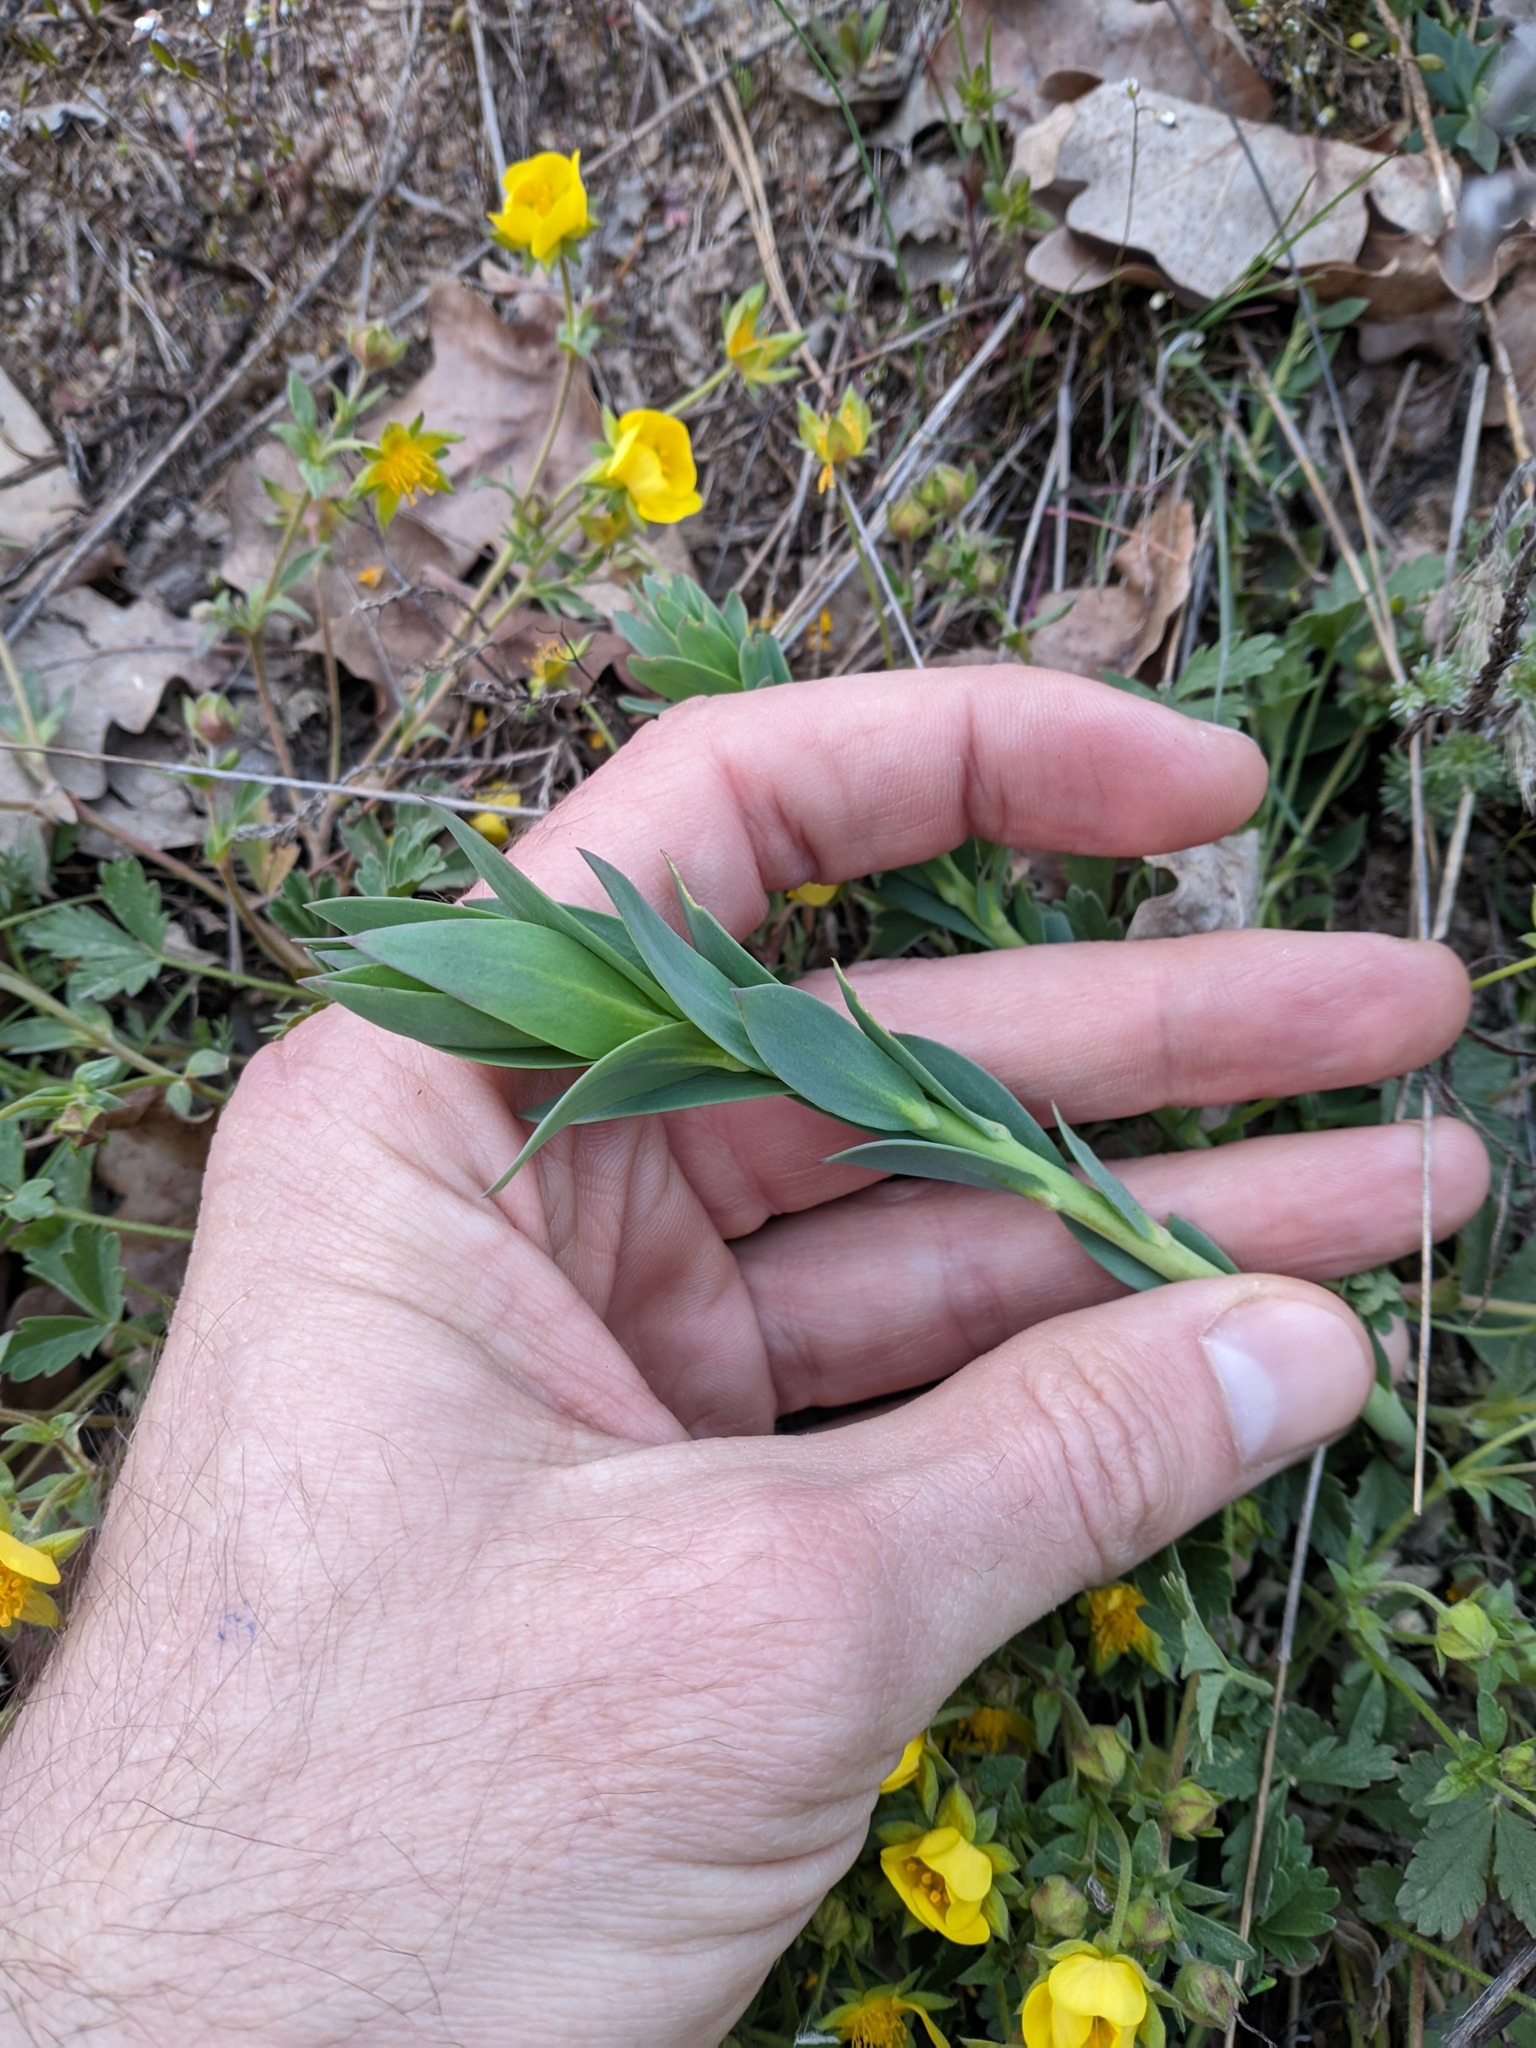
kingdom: Plantae
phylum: Tracheophyta
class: Magnoliopsida
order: Lamiales
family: Plantaginaceae
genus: Linaria
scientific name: Linaria genistifolia
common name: Broomleaf toadflax
